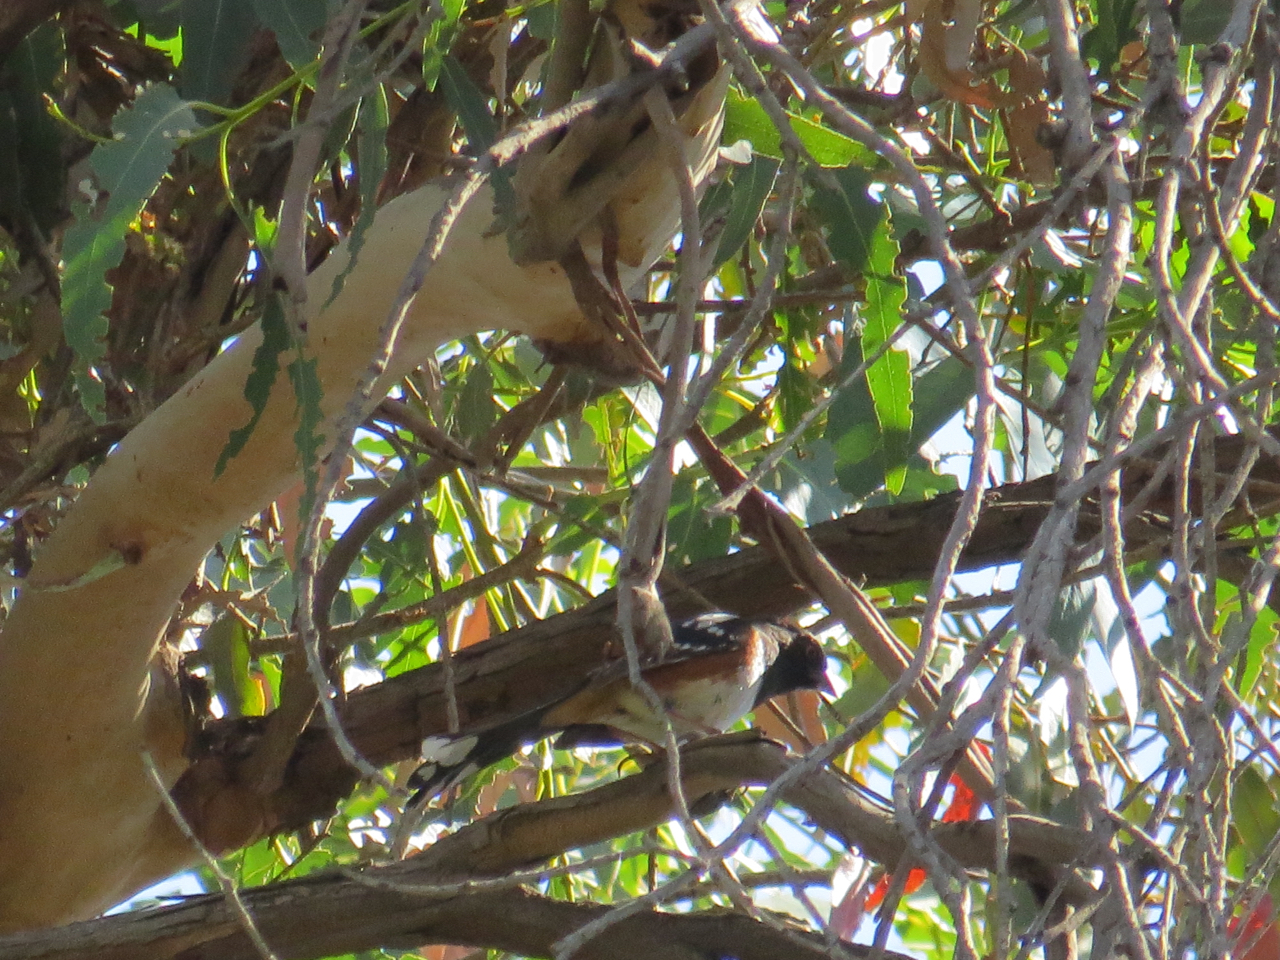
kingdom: Animalia
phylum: Chordata
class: Aves
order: Passeriformes
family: Passerellidae
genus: Pipilo
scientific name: Pipilo maculatus
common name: Spotted towhee
